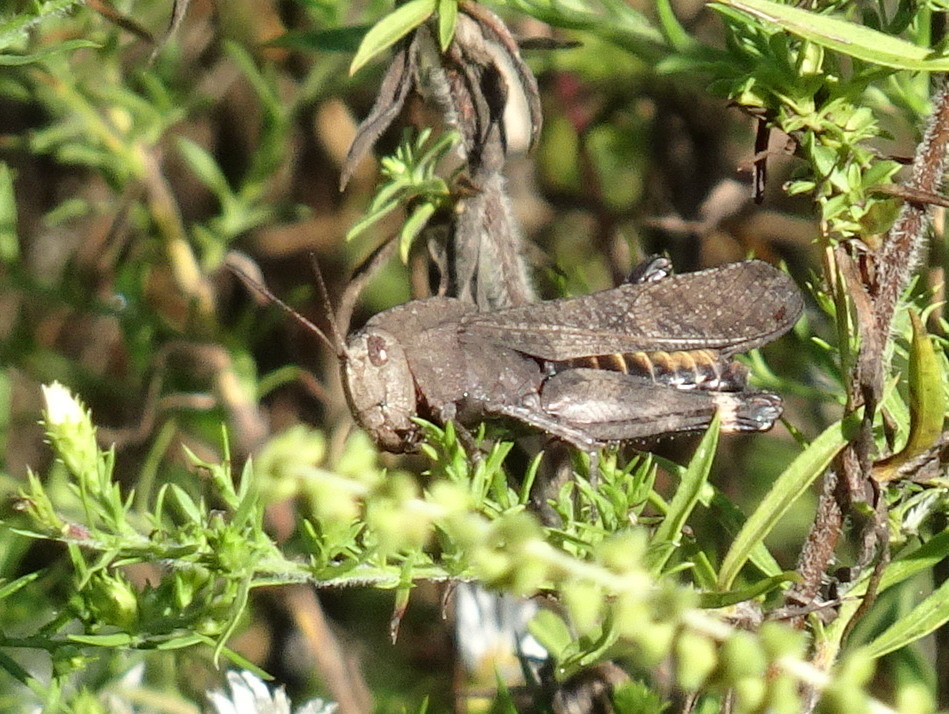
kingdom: Animalia
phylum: Arthropoda
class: Insecta
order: Orthoptera
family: Acrididae
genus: Arphia
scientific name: Arphia xanthoptera
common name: Autumn yellow-winged grasshopper
